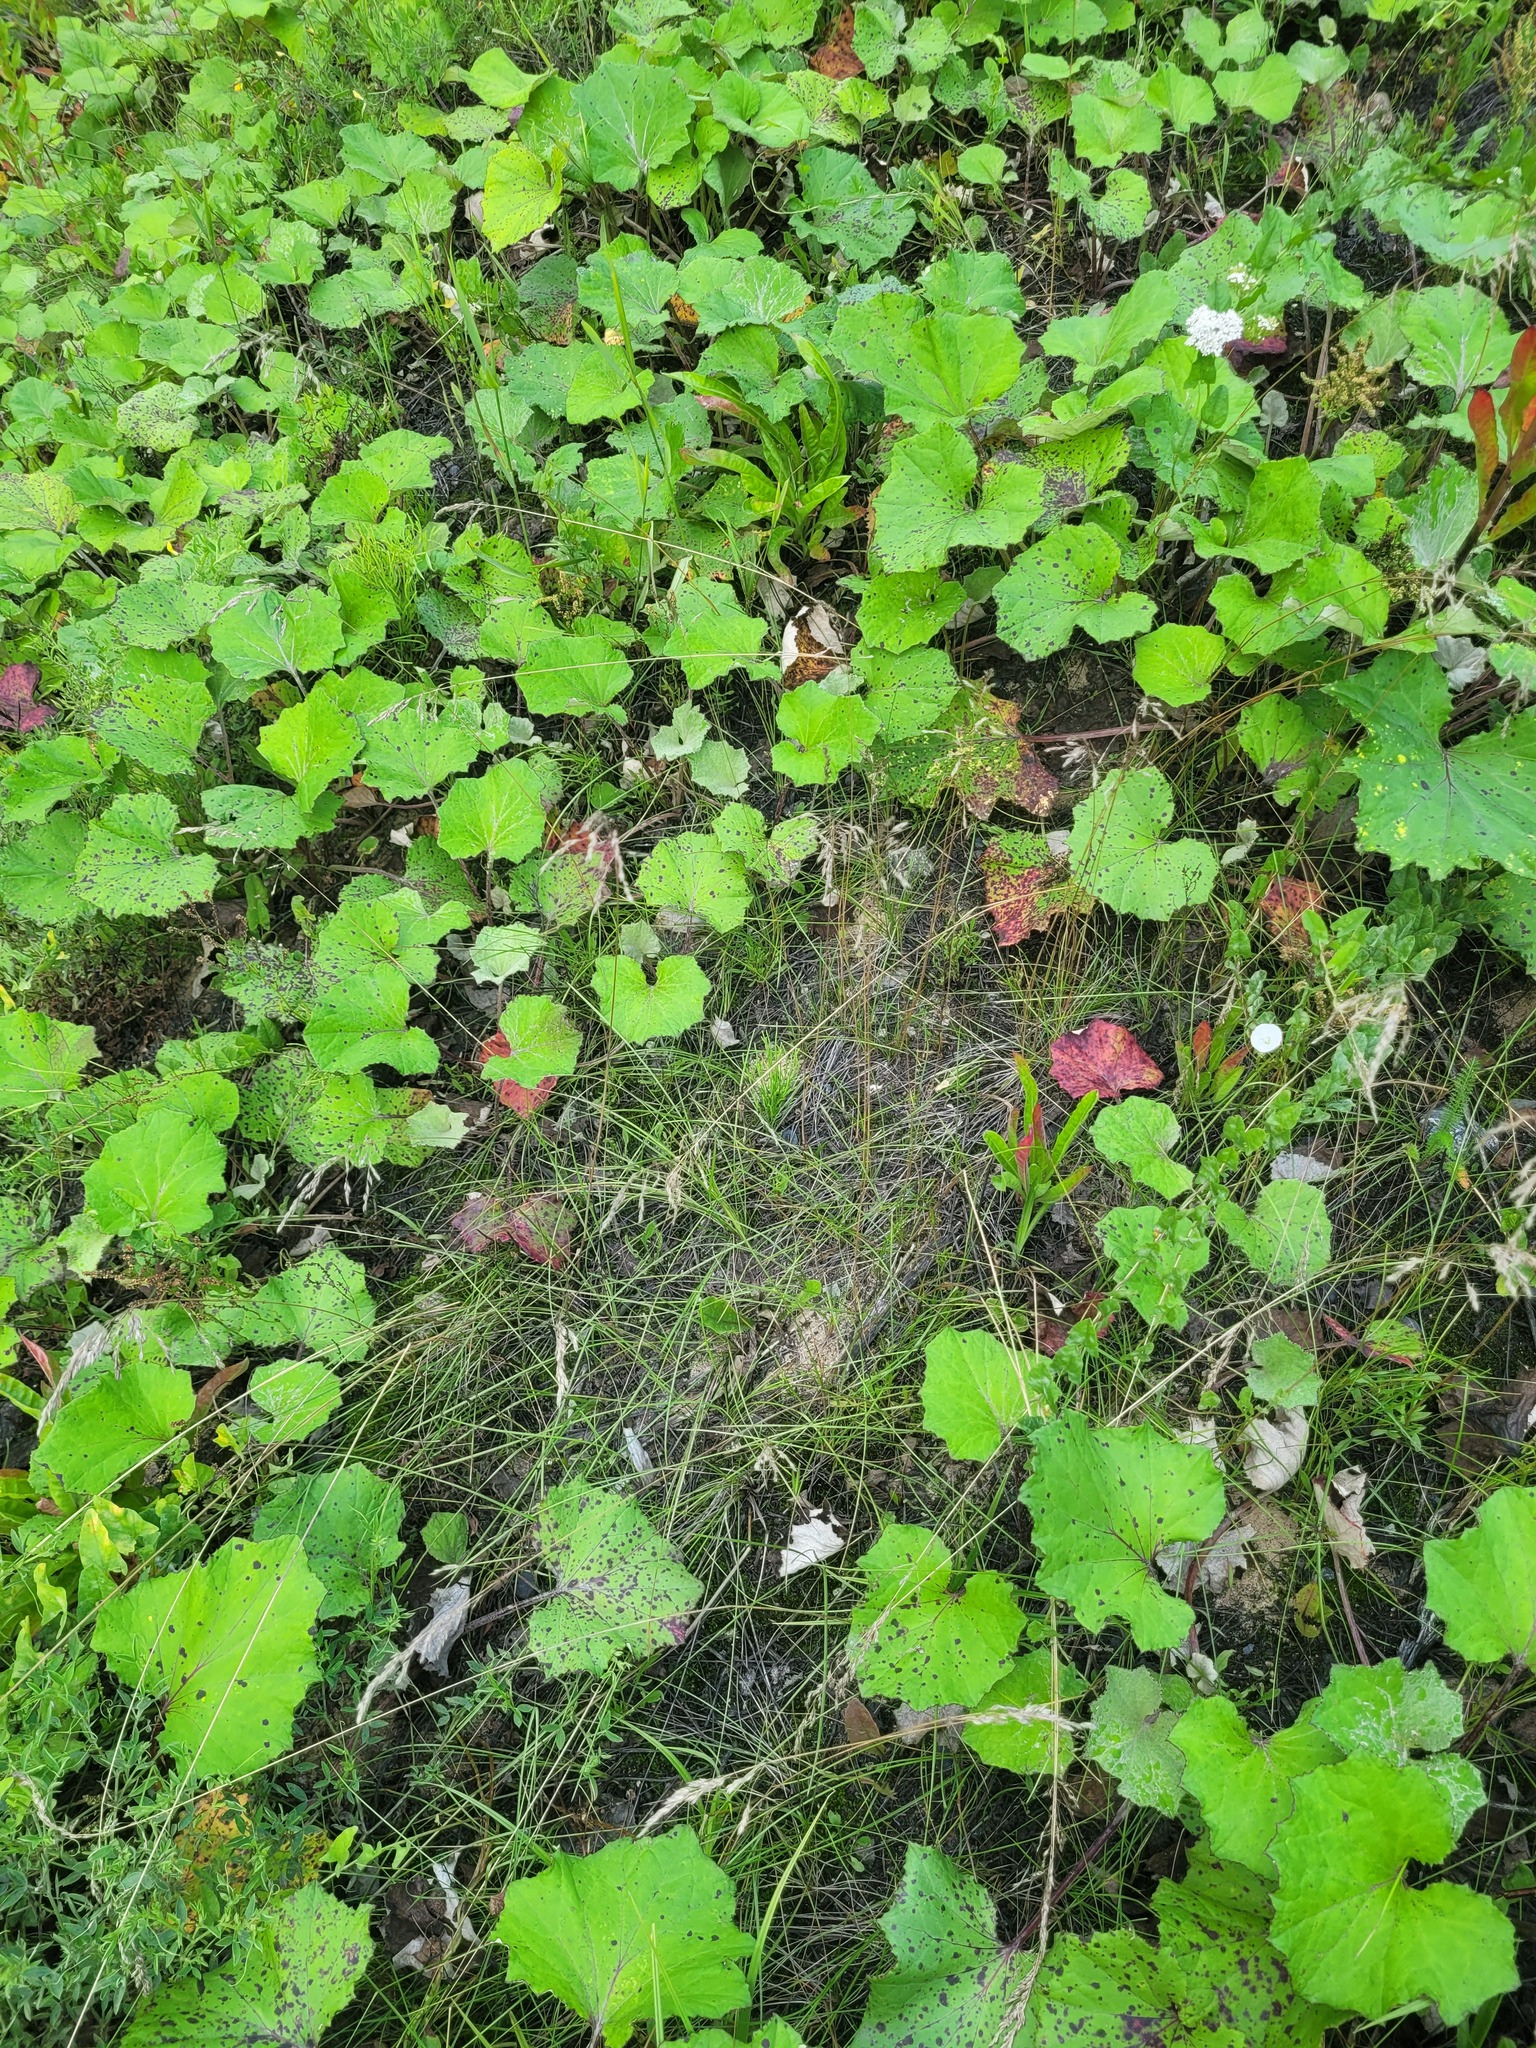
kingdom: Plantae
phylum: Tracheophyta
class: Liliopsida
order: Poales
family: Poaceae
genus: Poa
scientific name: Poa angustifolia
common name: Narrow-leaved meadow-grass
